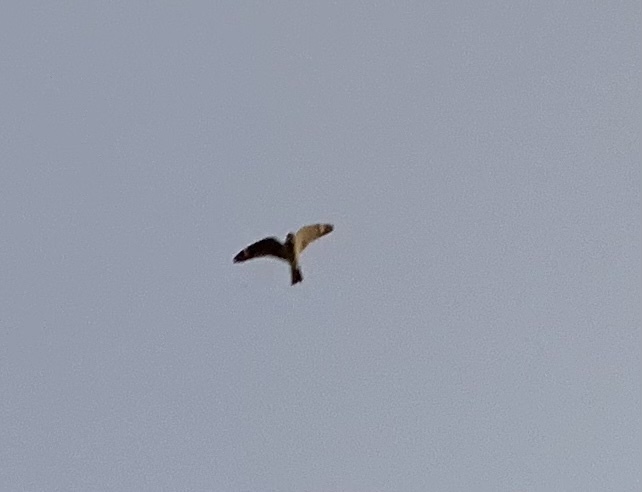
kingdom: Animalia
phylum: Chordata
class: Aves
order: Caprimulgiformes
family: Caprimulgidae
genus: Chordeiles
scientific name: Chordeiles acutipennis
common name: Lesser nighthawk
